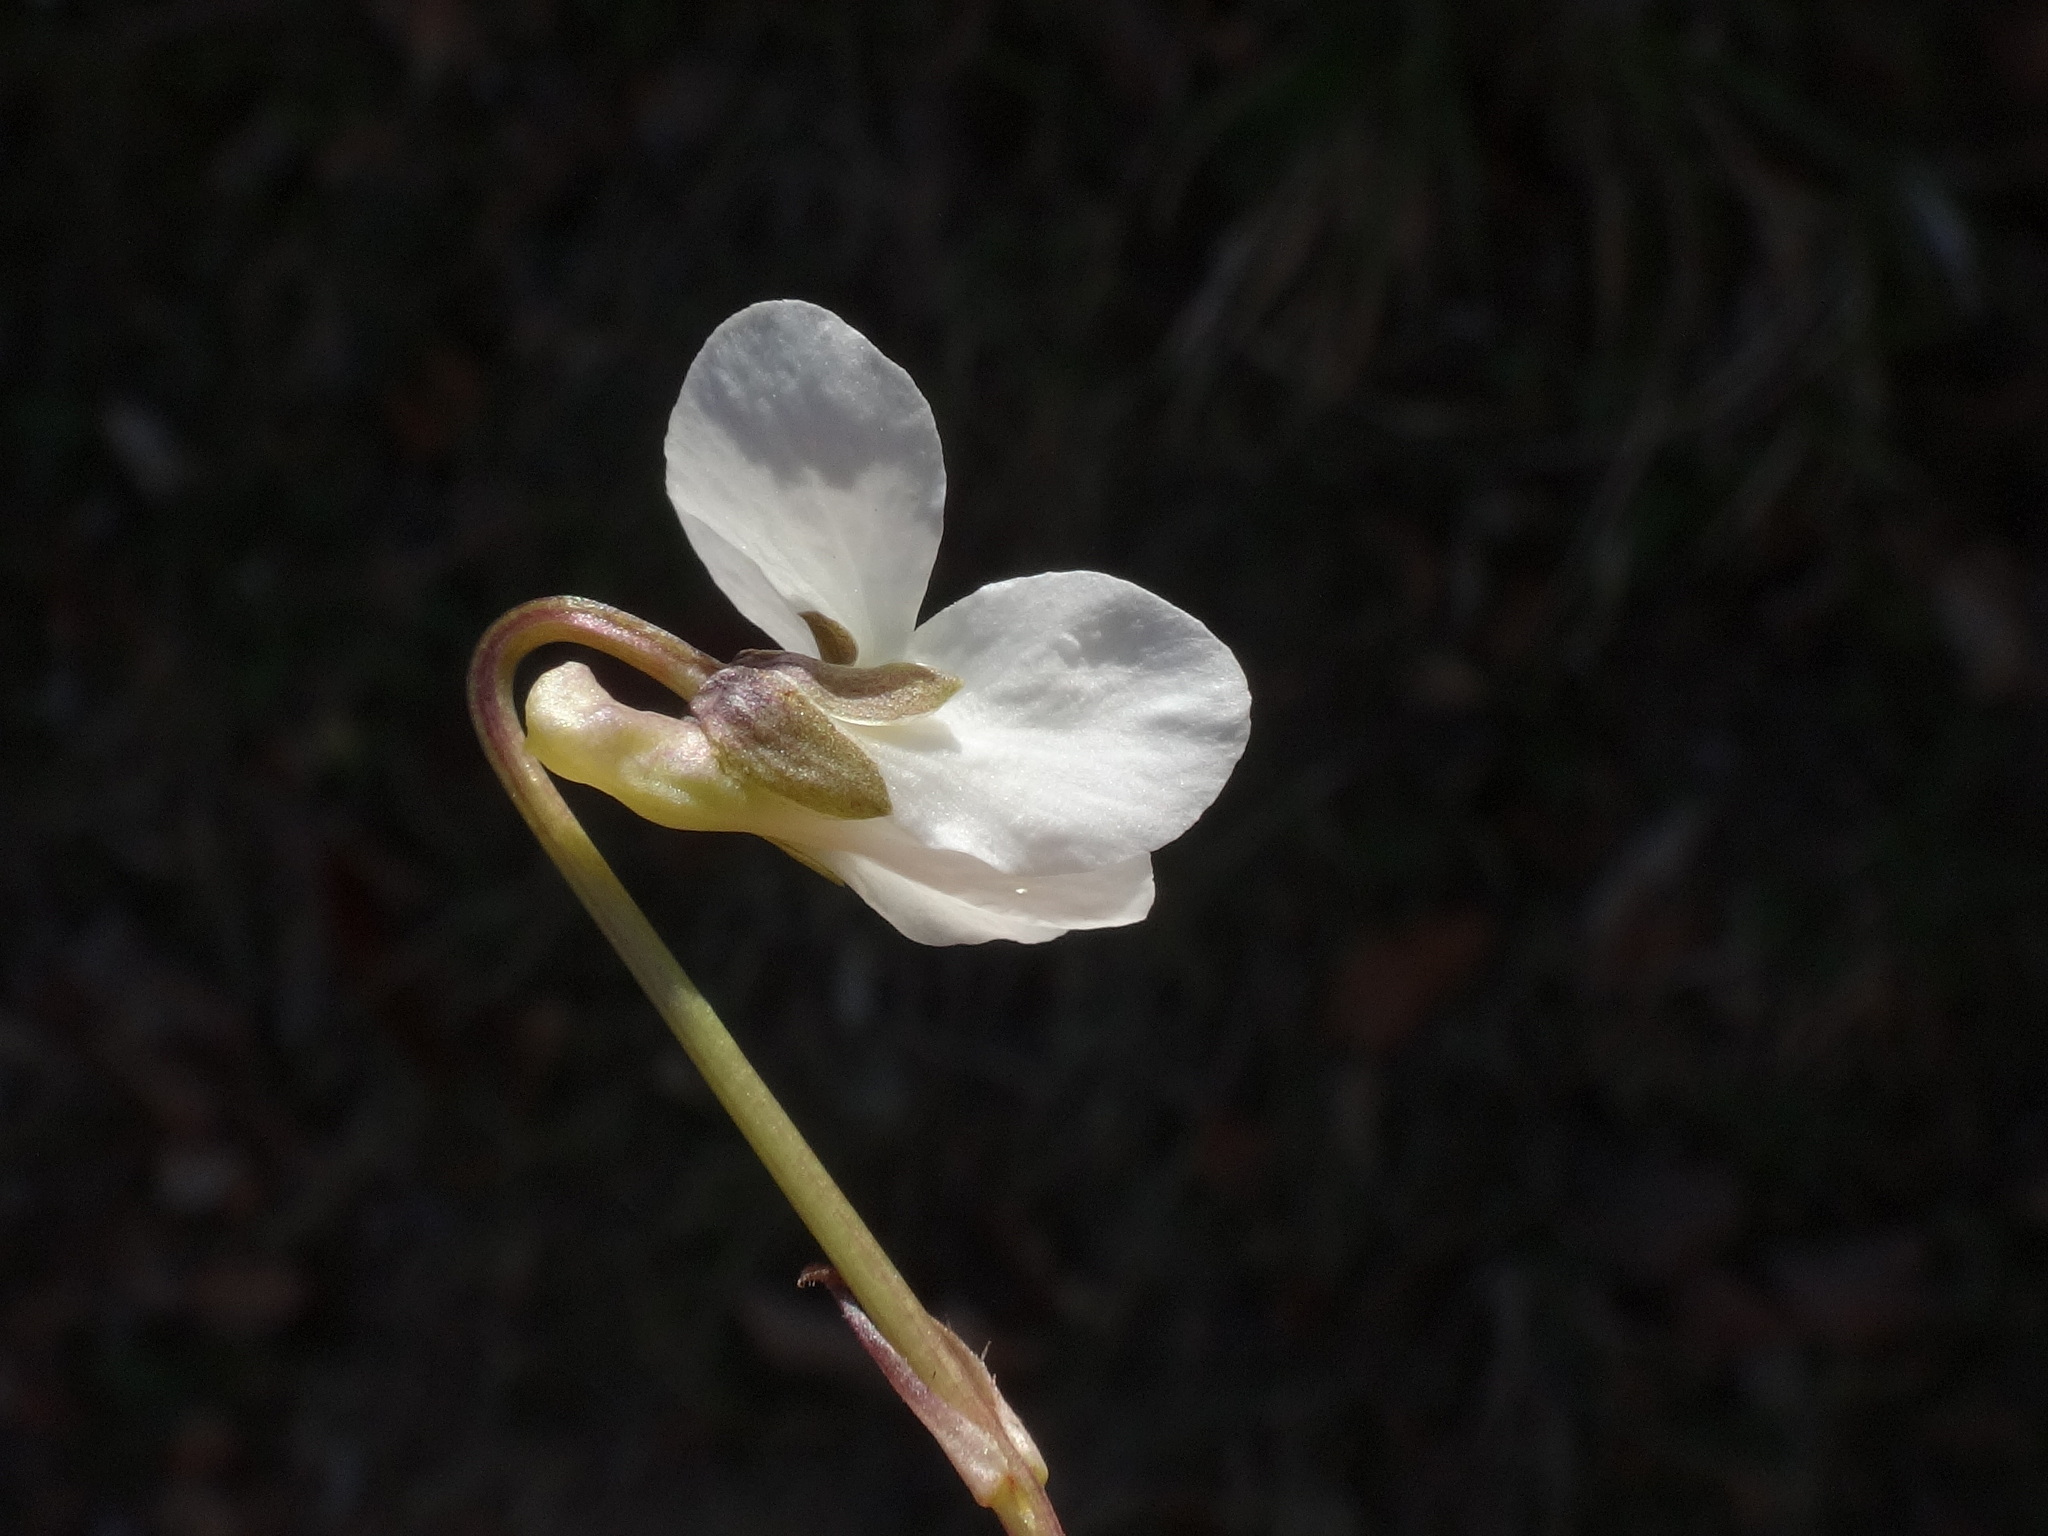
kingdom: Plantae
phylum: Tracheophyta
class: Magnoliopsida
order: Malpighiales
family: Violaceae
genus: Viola
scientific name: Viola alba
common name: White violet
